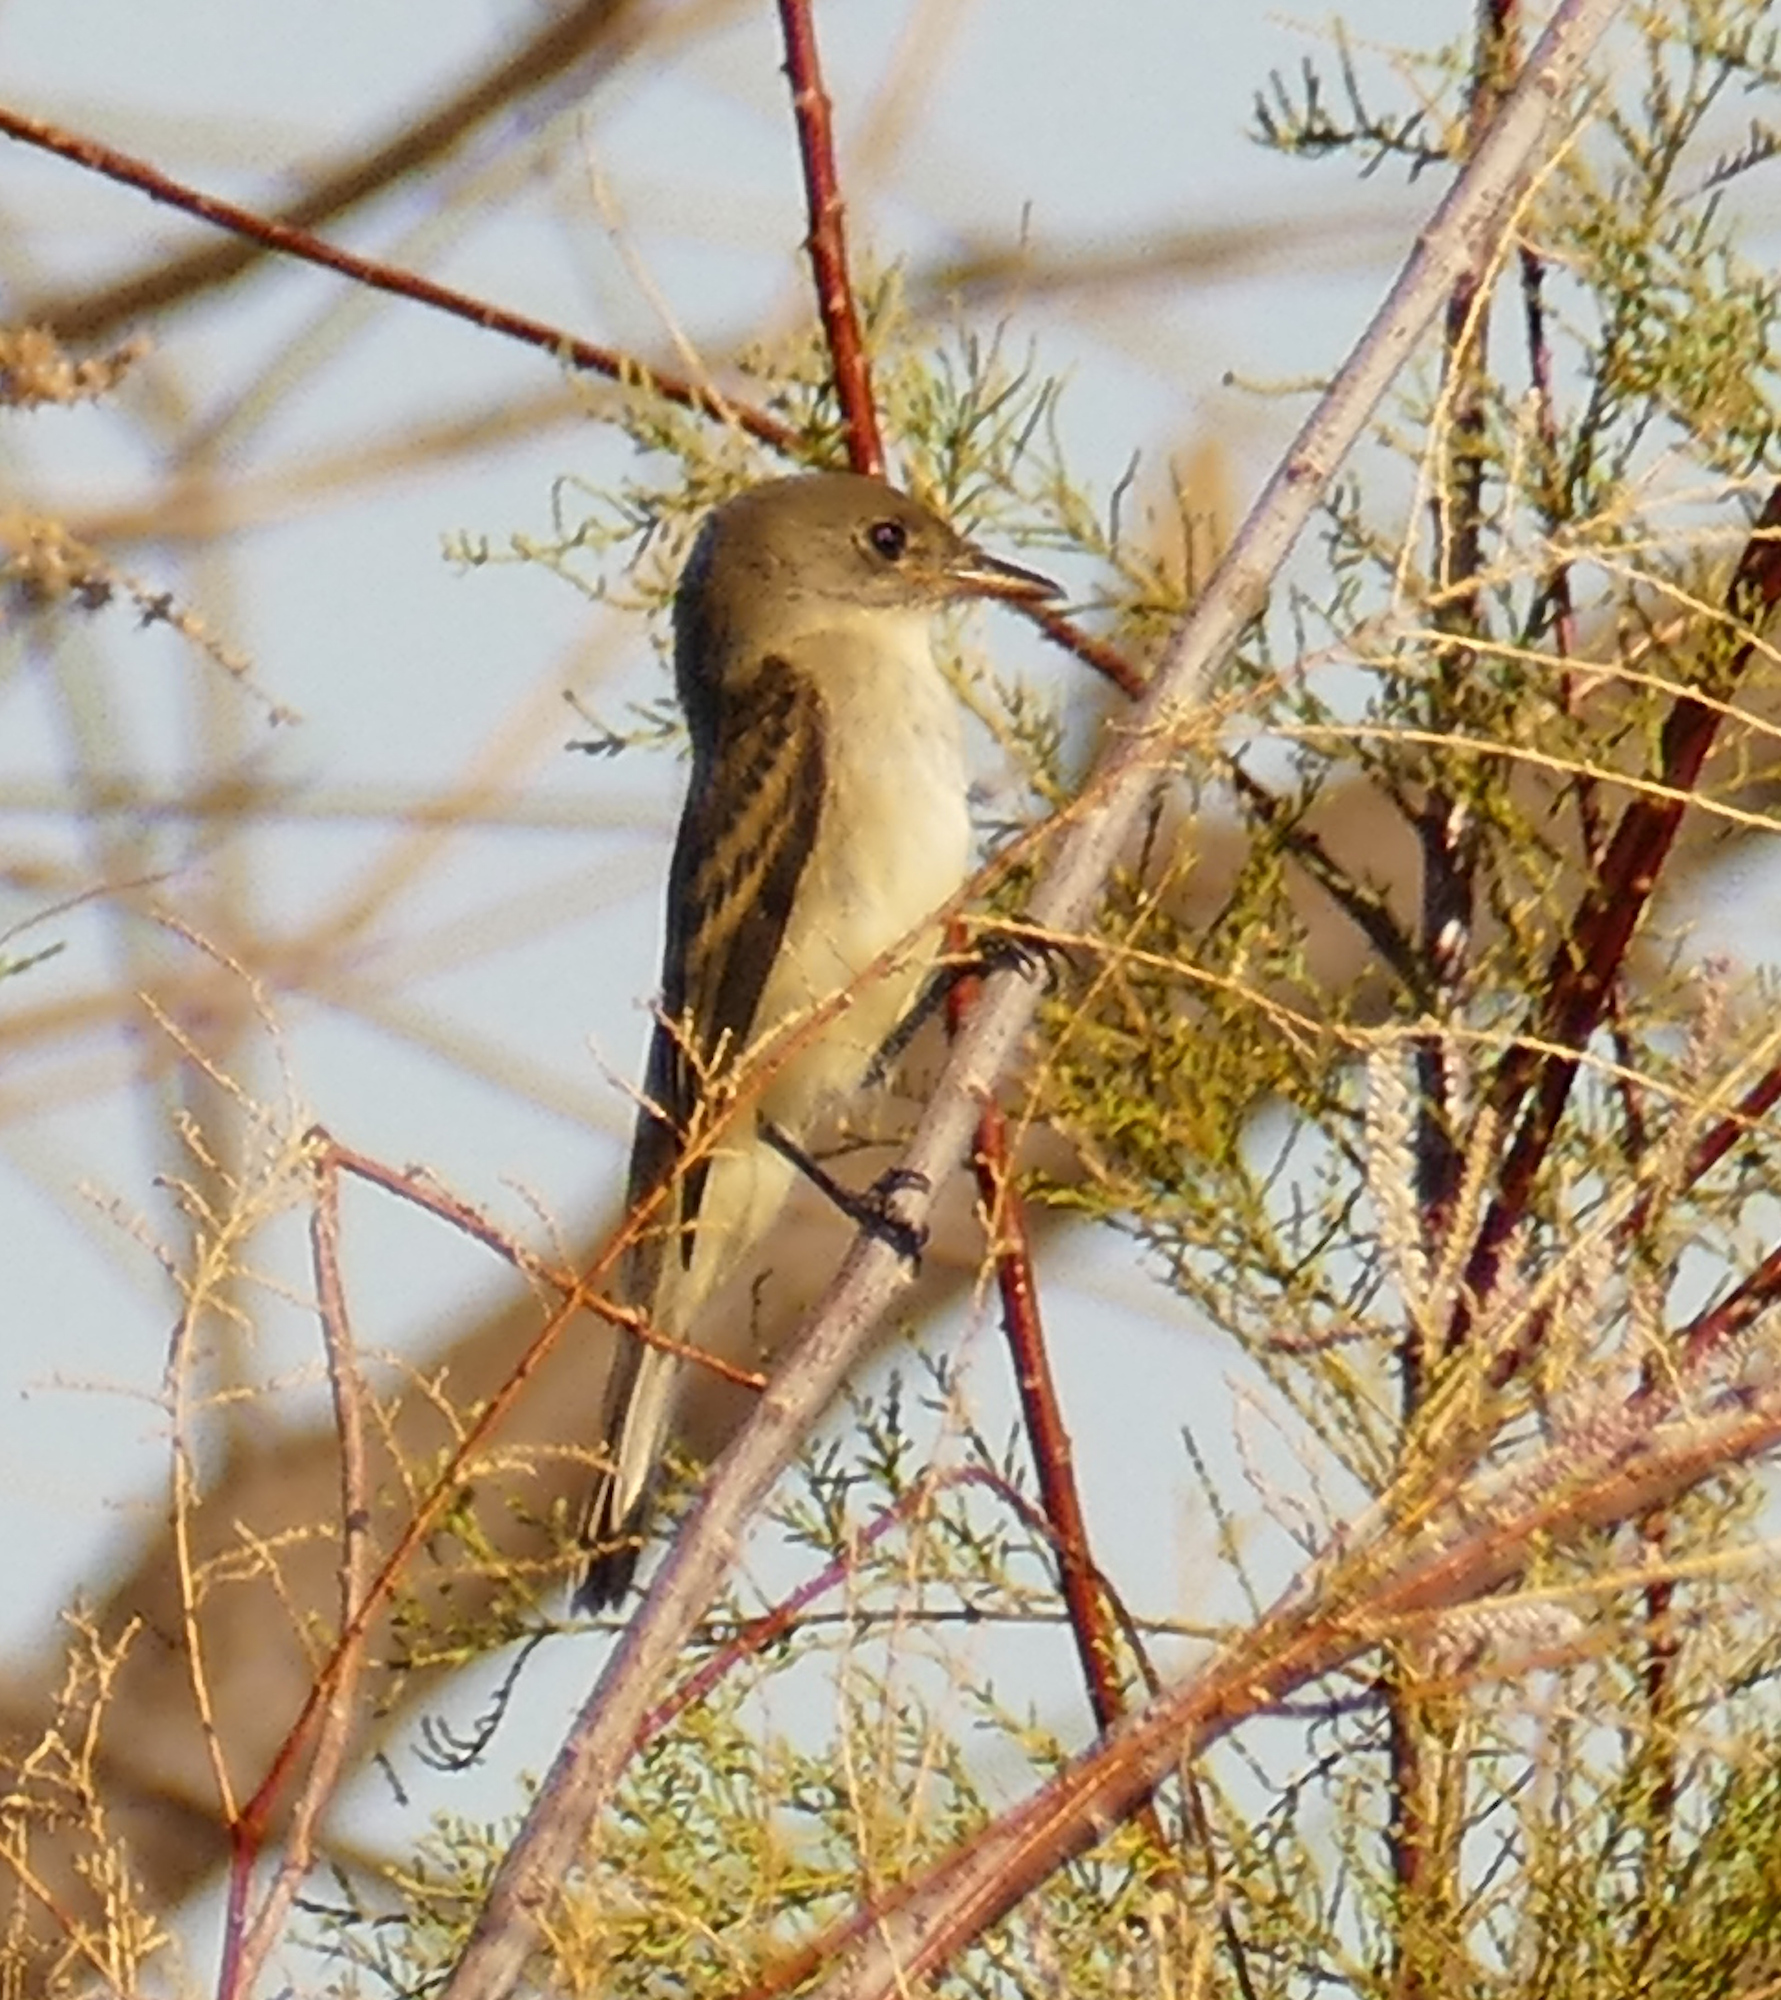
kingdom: Animalia
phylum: Chordata
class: Aves
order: Passeriformes
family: Tyrannidae
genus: Empidonax
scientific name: Empidonax traillii
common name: Willow flycatcher
